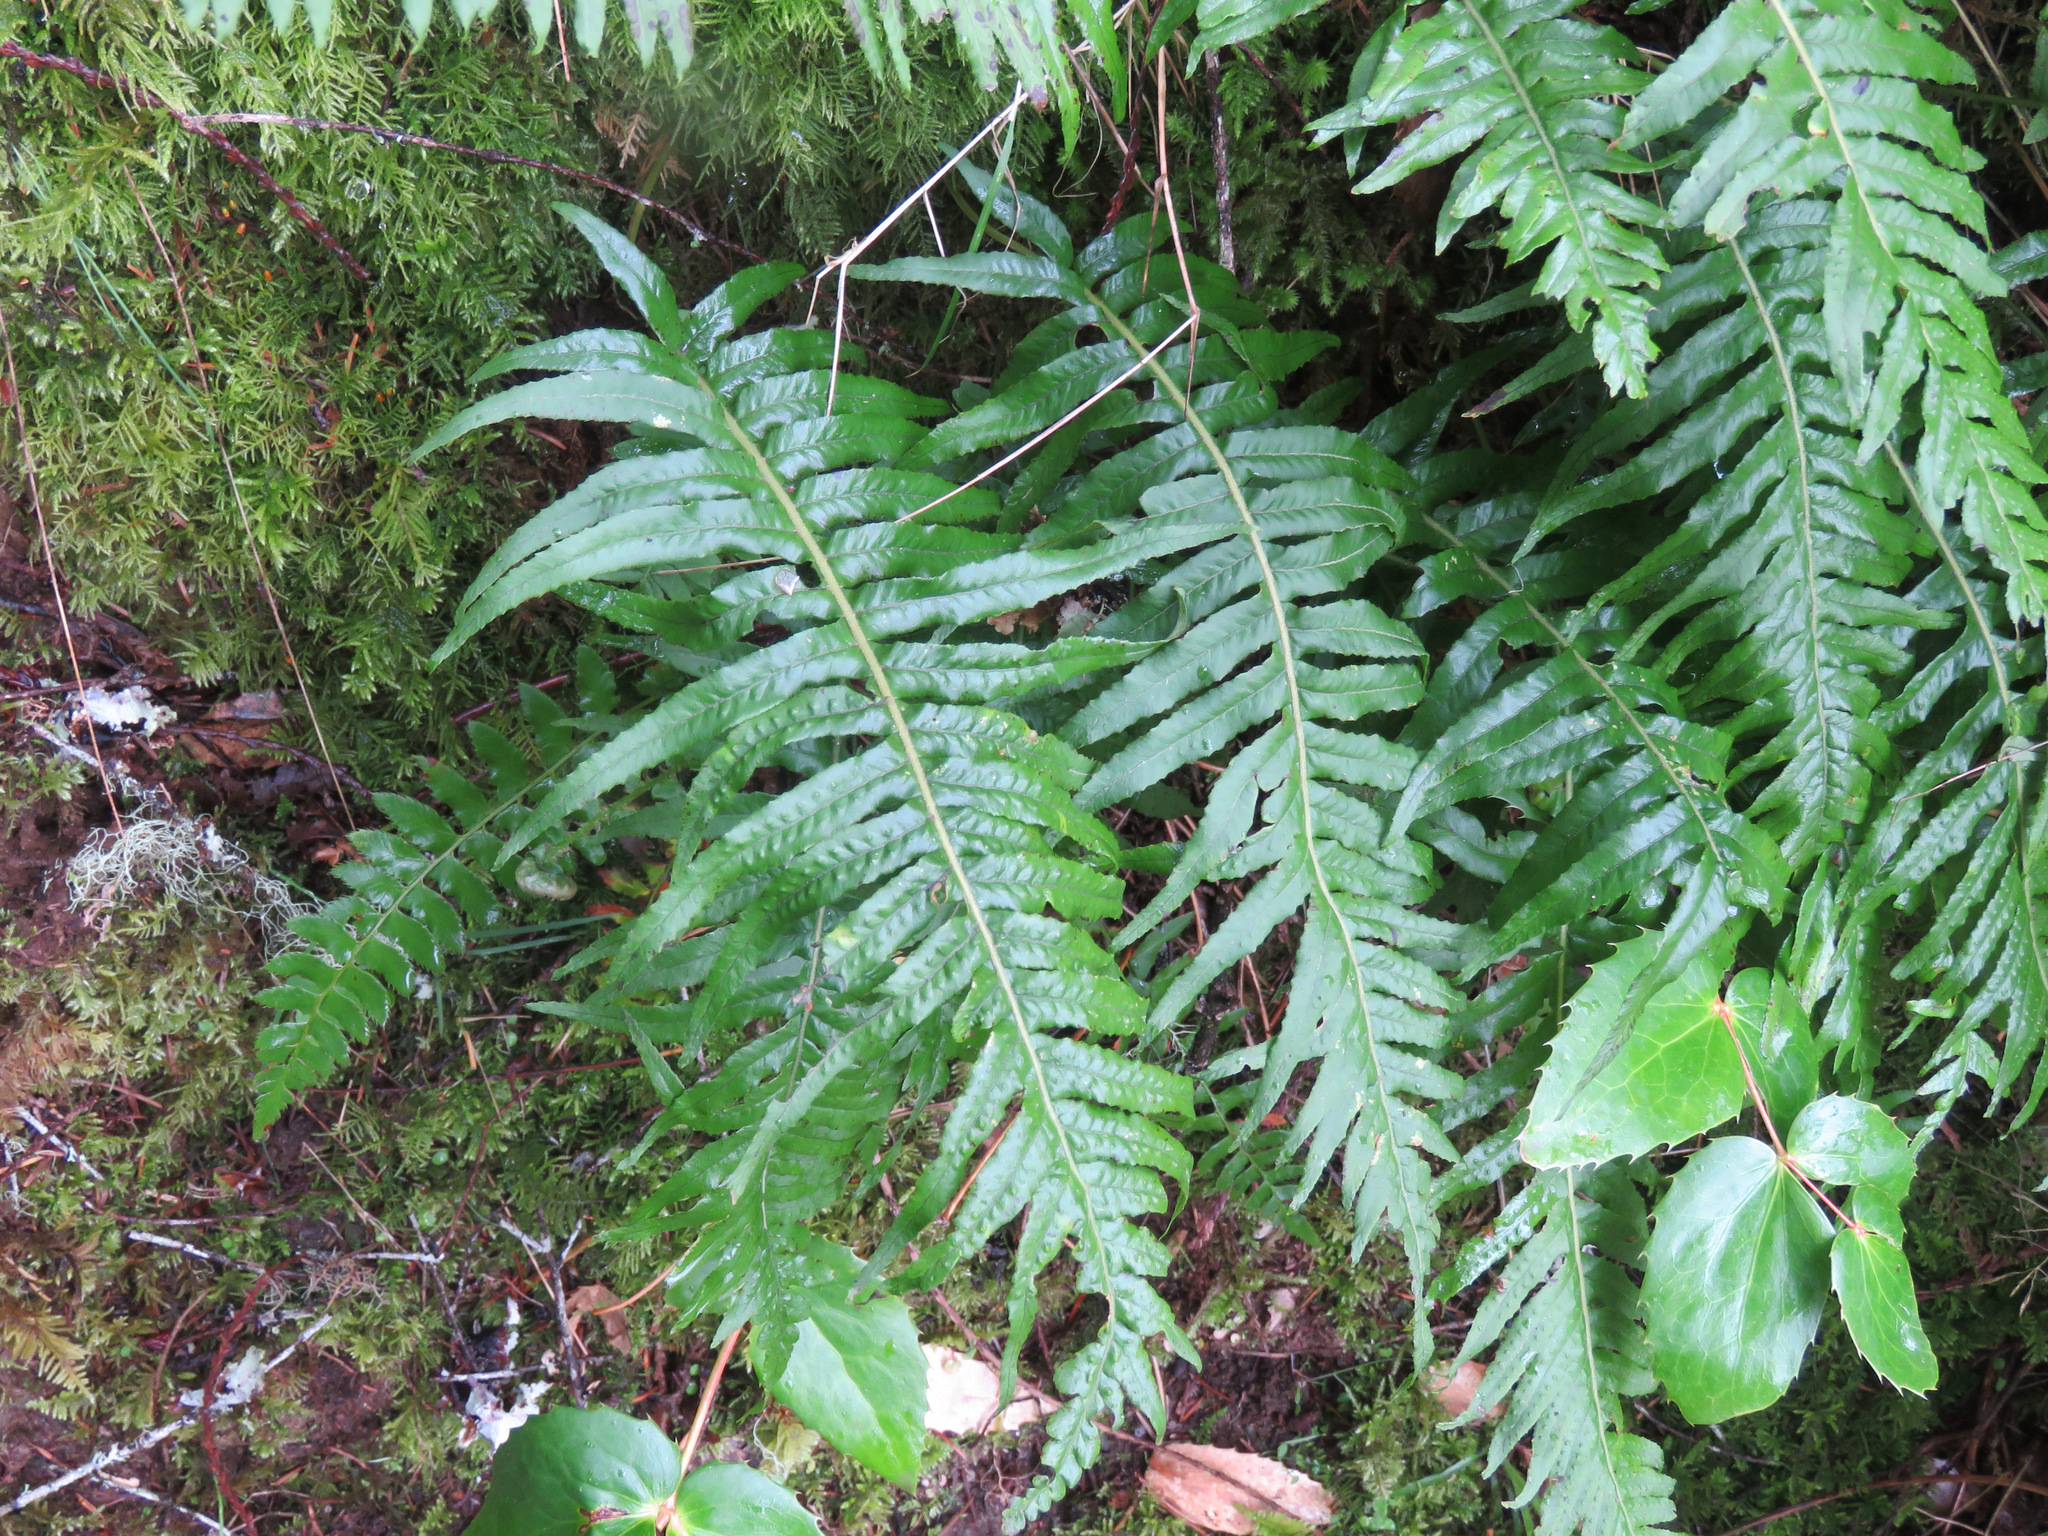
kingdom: Plantae
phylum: Tracheophyta
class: Polypodiopsida
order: Polypodiales
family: Polypodiaceae
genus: Polypodium
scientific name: Polypodium glycyrrhiza
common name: Licorice fern
